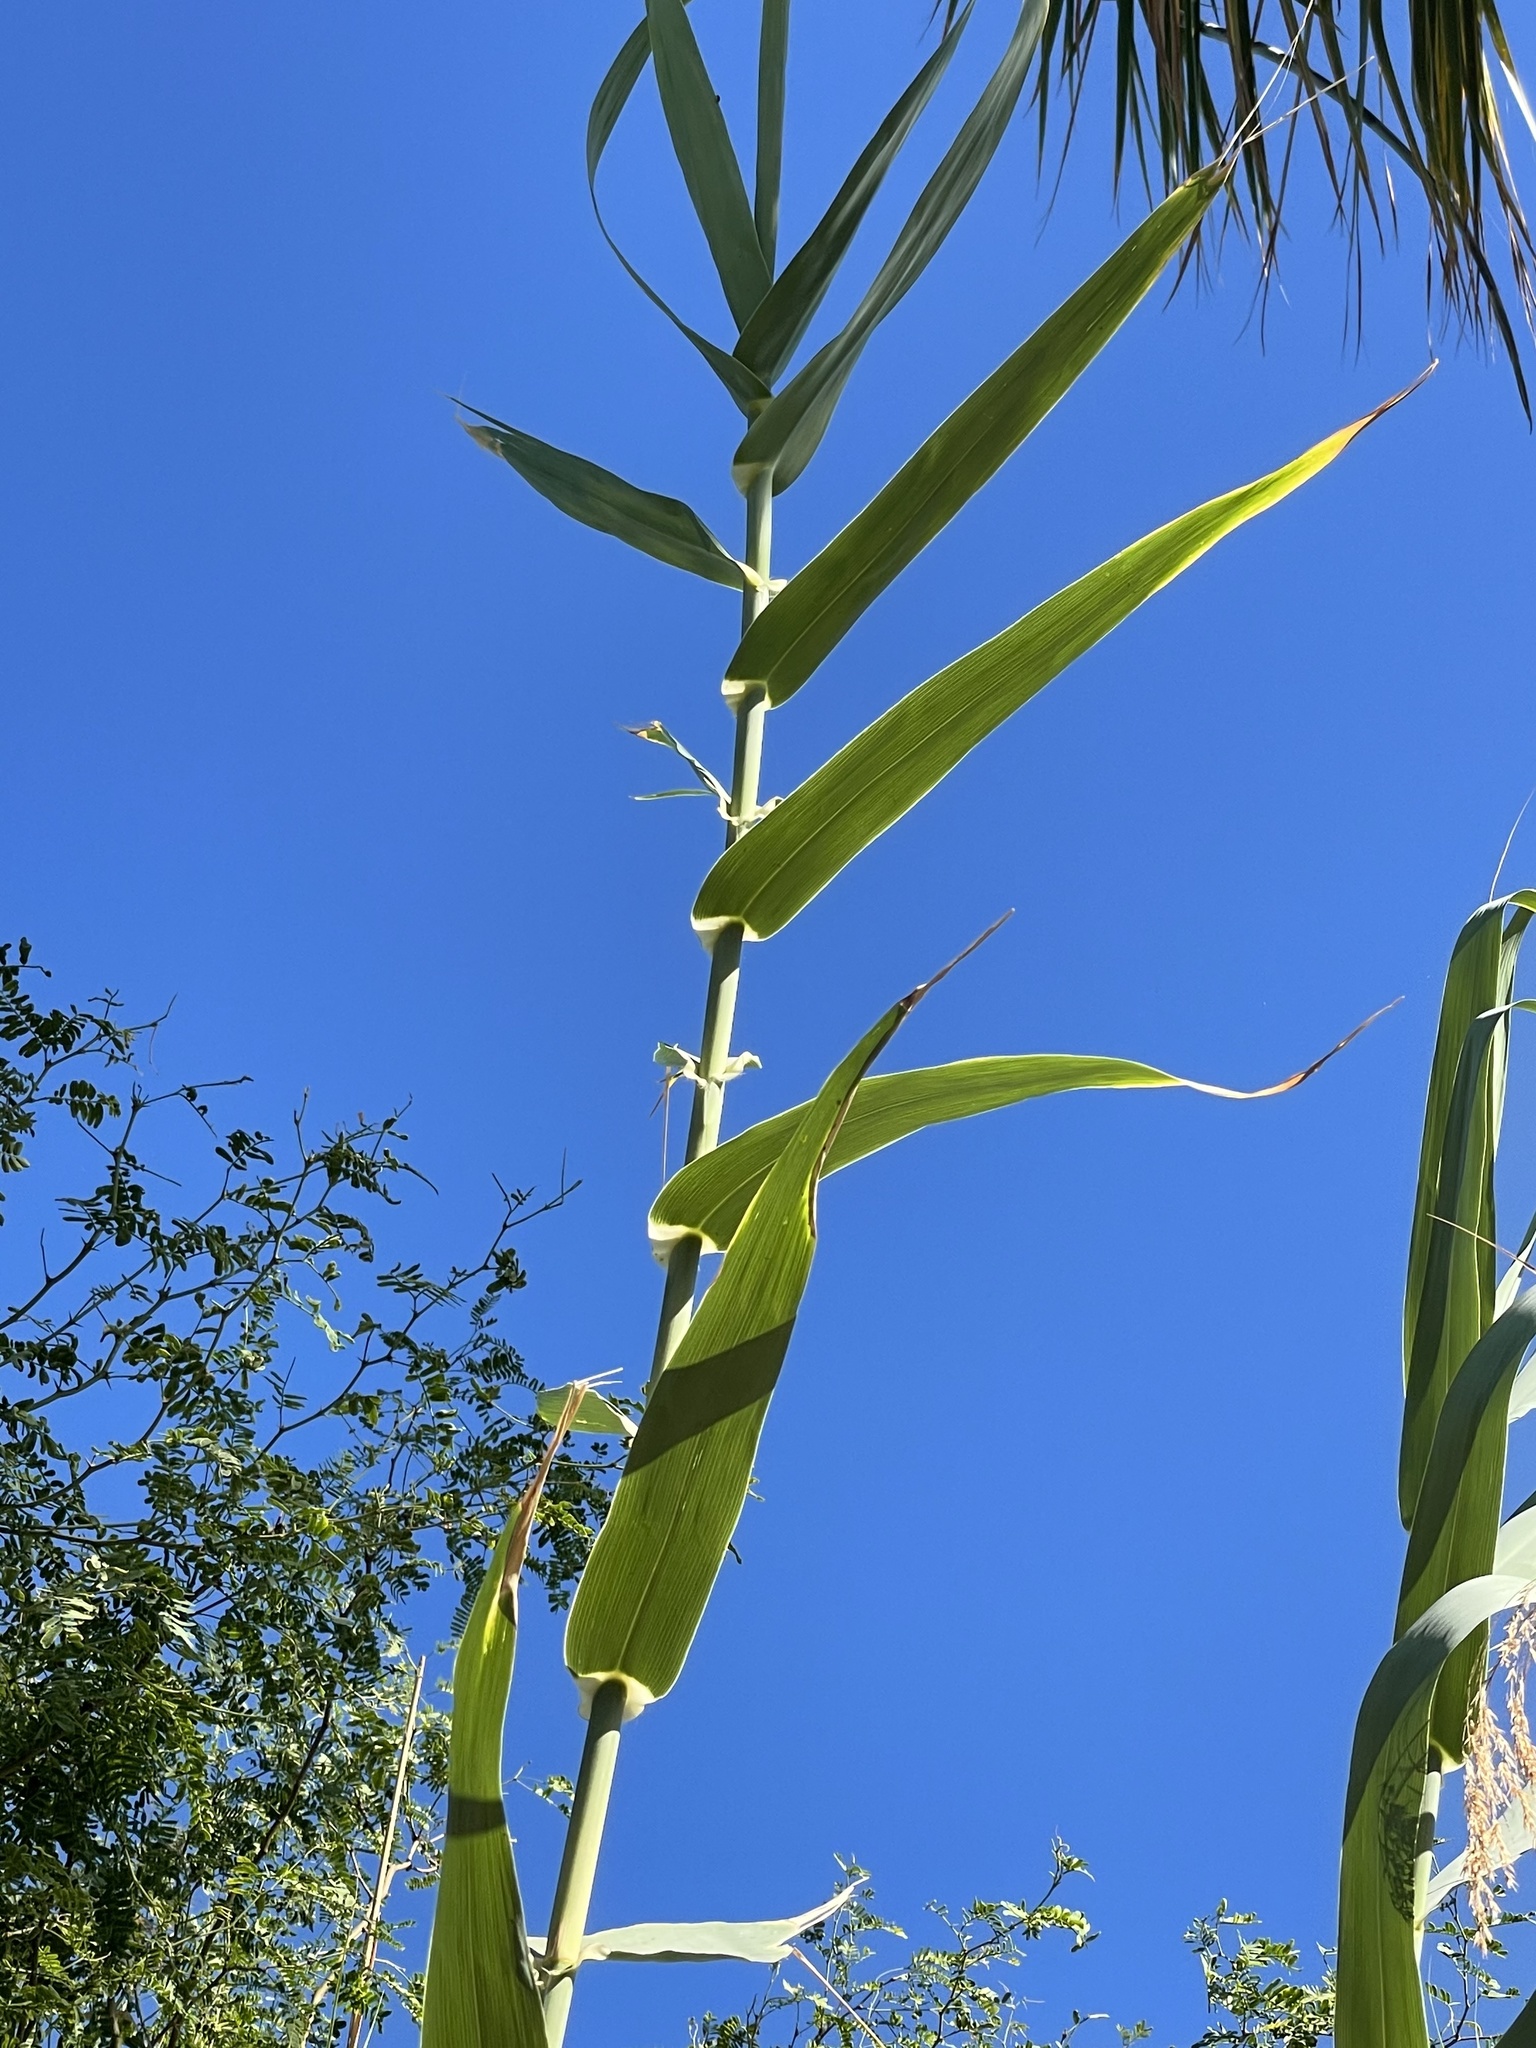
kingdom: Plantae
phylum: Tracheophyta
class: Liliopsida
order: Poales
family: Poaceae
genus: Arundo
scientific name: Arundo donax
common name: Giant reed
